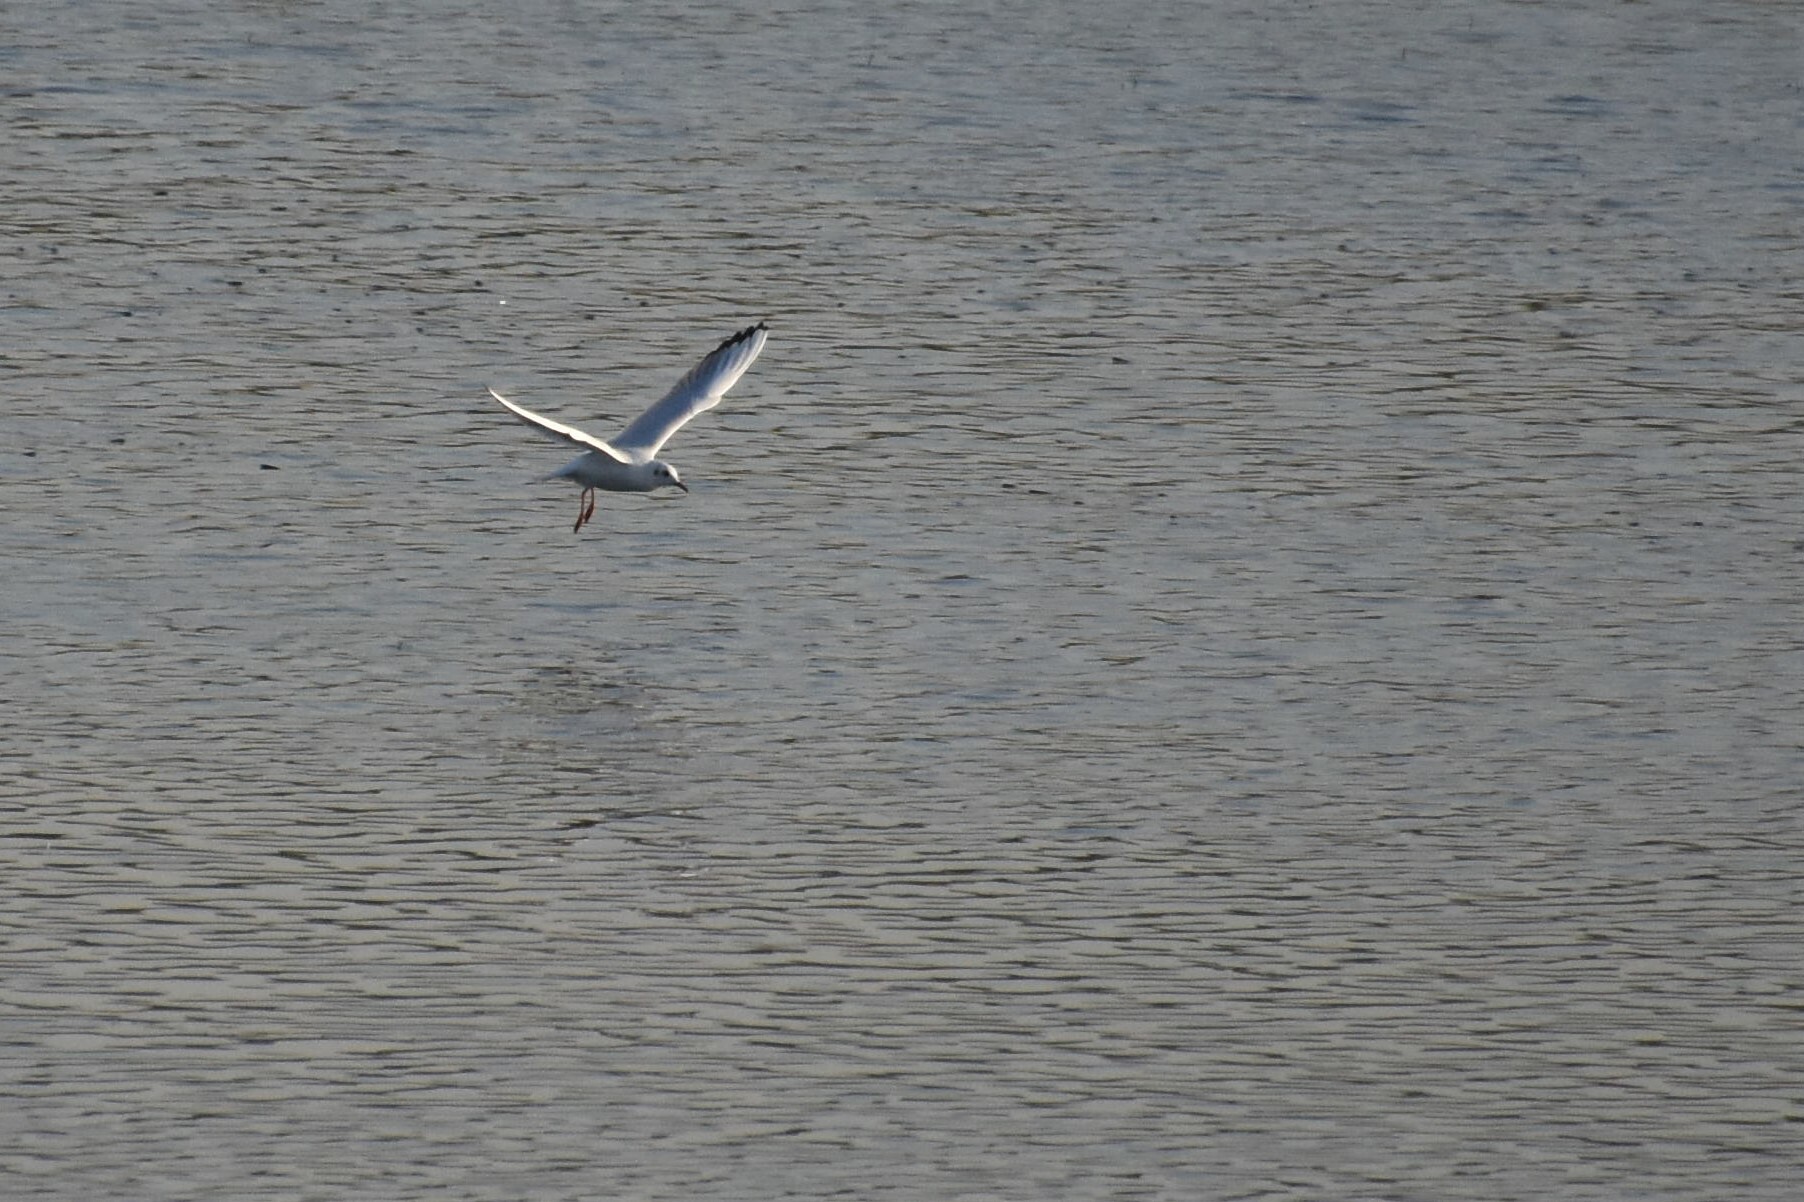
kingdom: Animalia
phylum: Chordata
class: Aves
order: Charadriiformes
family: Laridae
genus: Chroicocephalus
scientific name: Chroicocephalus ridibundus
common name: Black-headed gull
